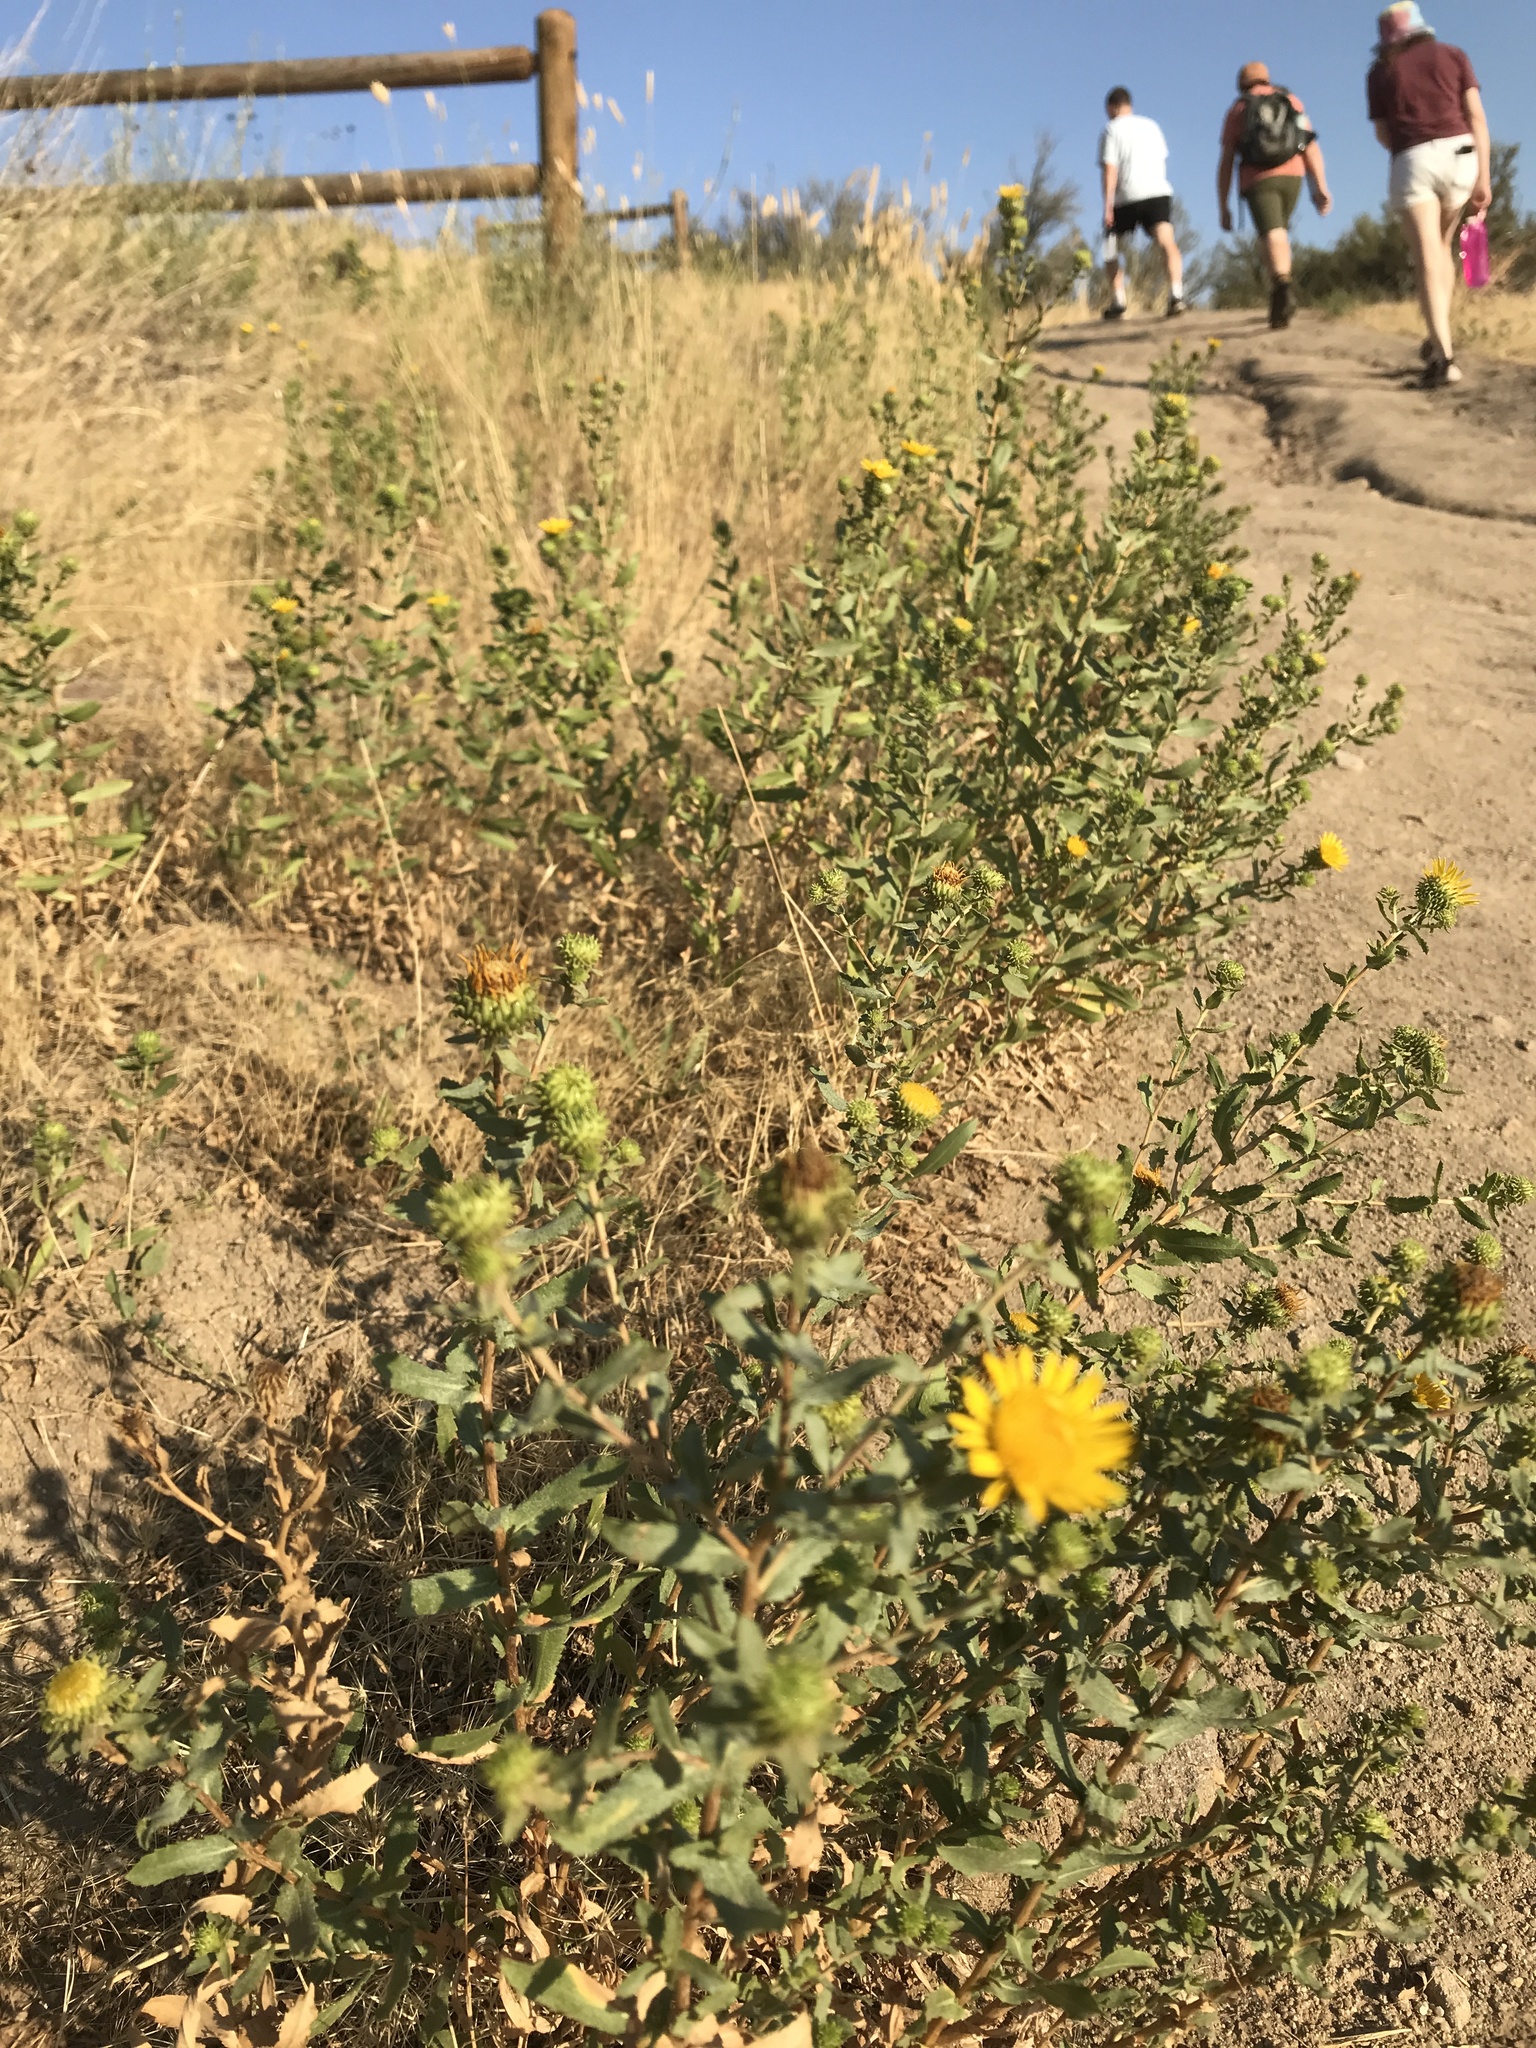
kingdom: Plantae
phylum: Tracheophyta
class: Magnoliopsida
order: Asterales
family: Asteraceae
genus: Grindelia
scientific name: Grindelia squarrosa
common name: Curly-cup gumweed
